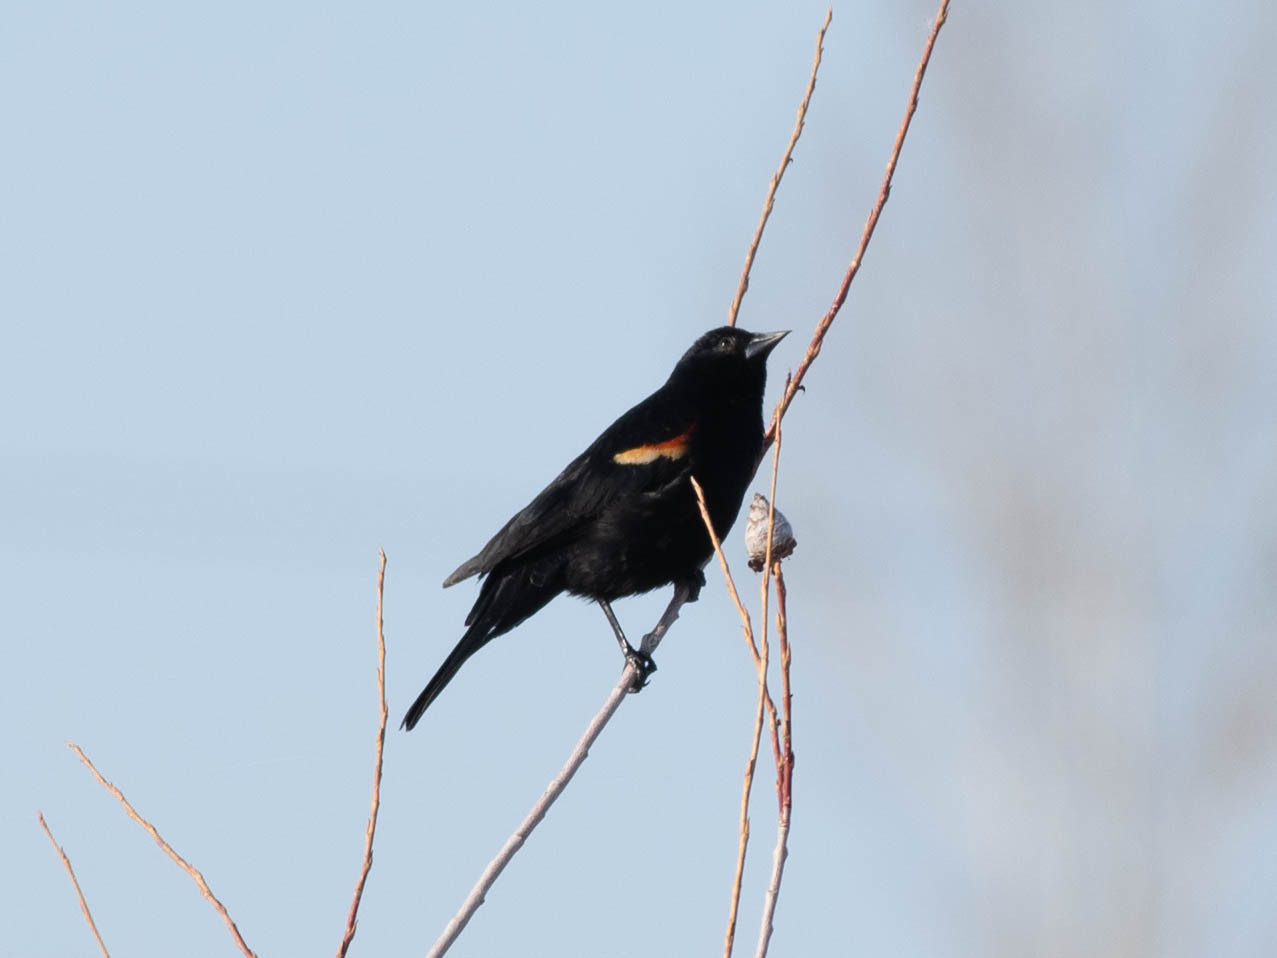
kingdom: Animalia
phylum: Chordata
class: Aves
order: Passeriformes
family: Icteridae
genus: Agelaius
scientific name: Agelaius phoeniceus
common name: Red-winged blackbird
